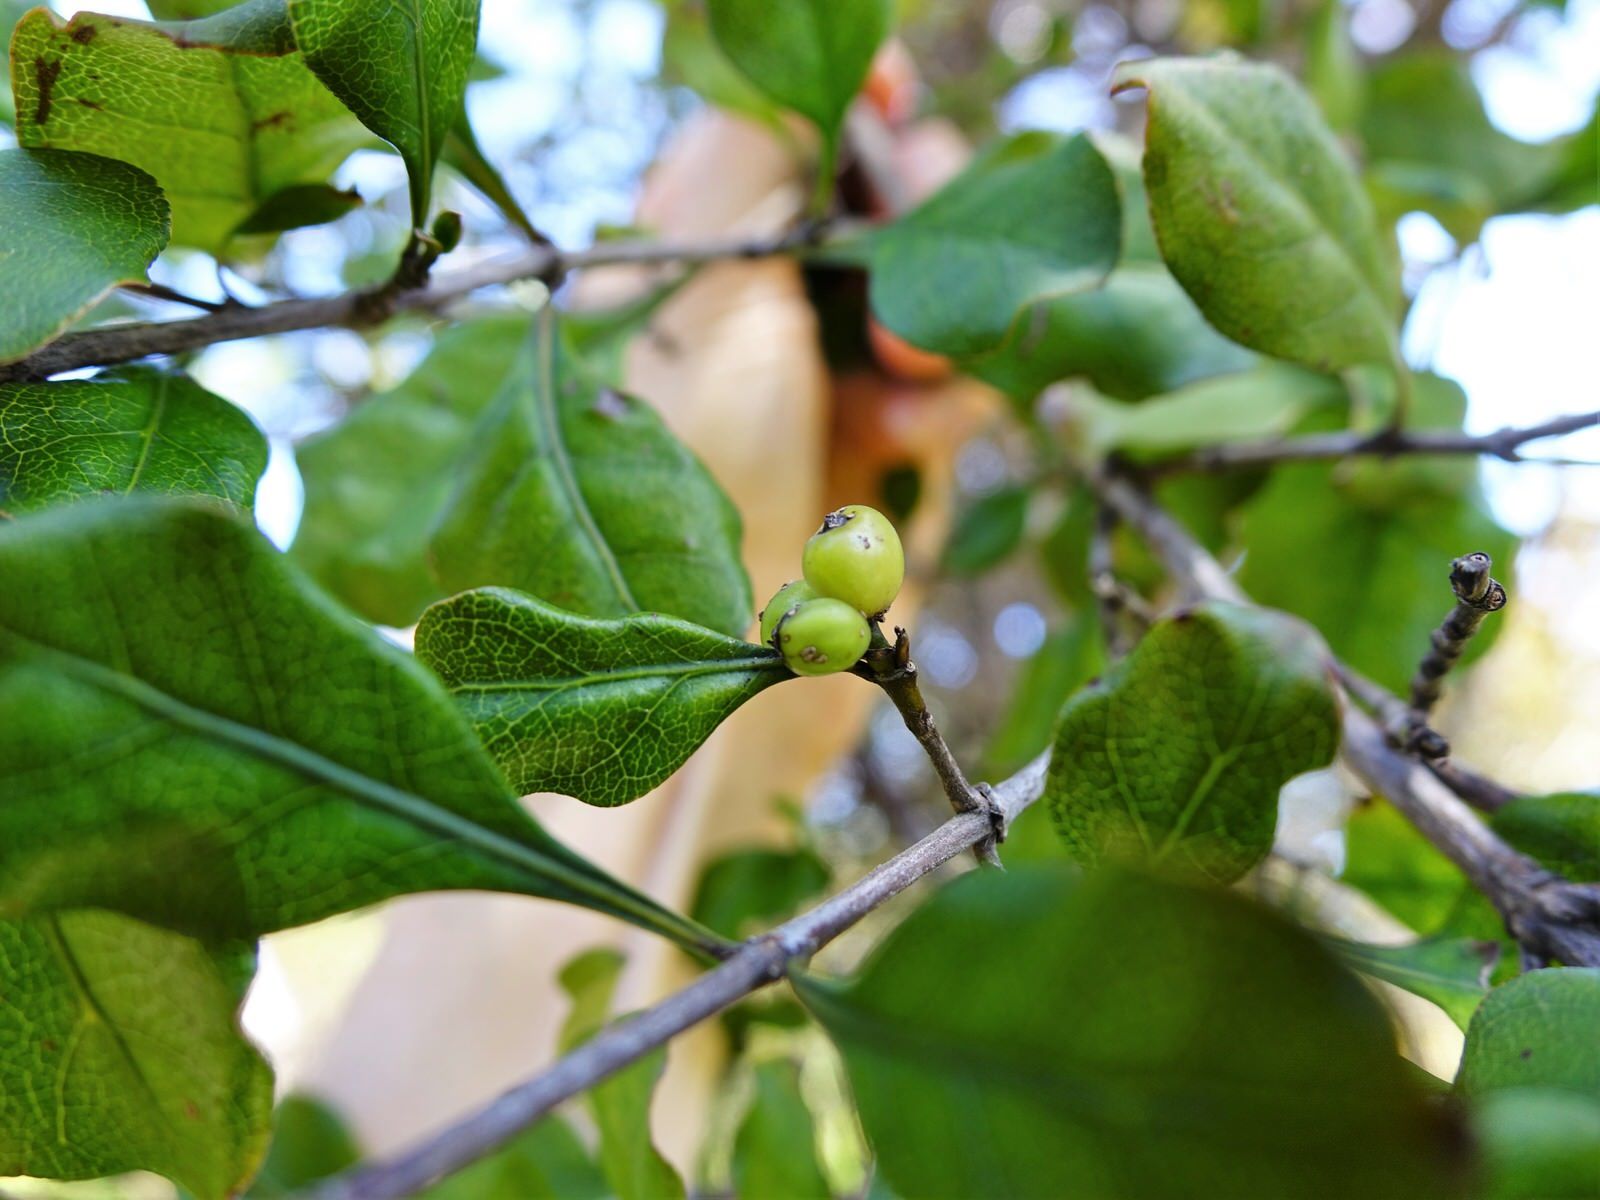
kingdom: Plantae
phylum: Tracheophyta
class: Magnoliopsida
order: Gentianales
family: Rubiaceae
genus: Coprosma
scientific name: Coprosma arborea
